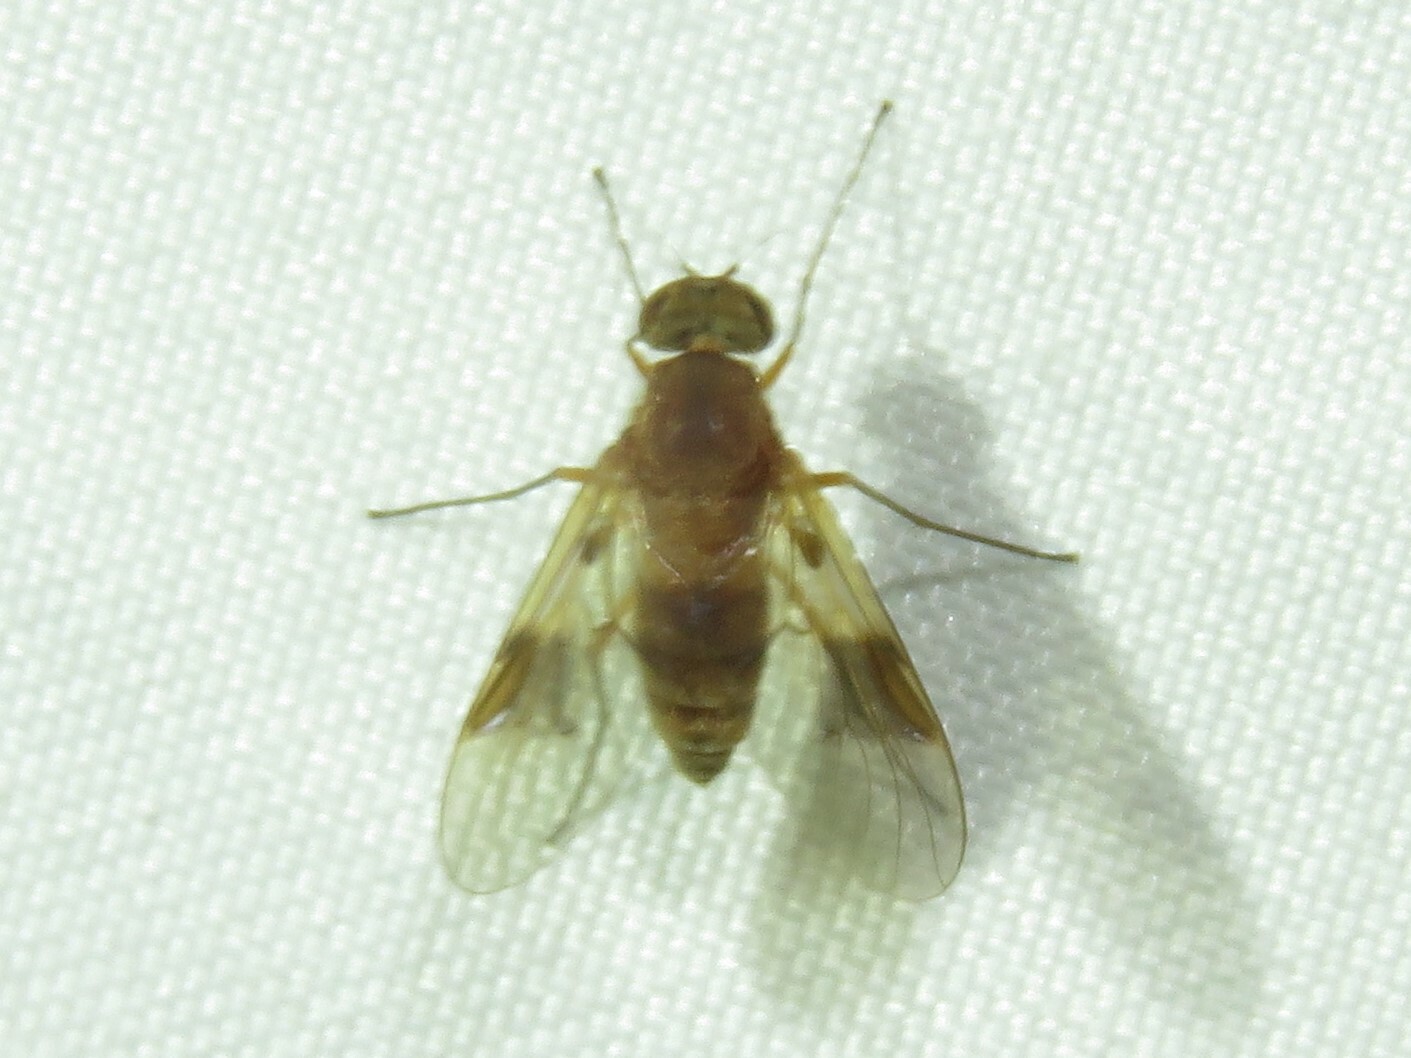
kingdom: Animalia
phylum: Arthropoda
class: Insecta
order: Diptera
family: Rhagionidae
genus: Chrysopilus
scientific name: Chrysopilus quadratus
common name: Quadrate snipe fly
